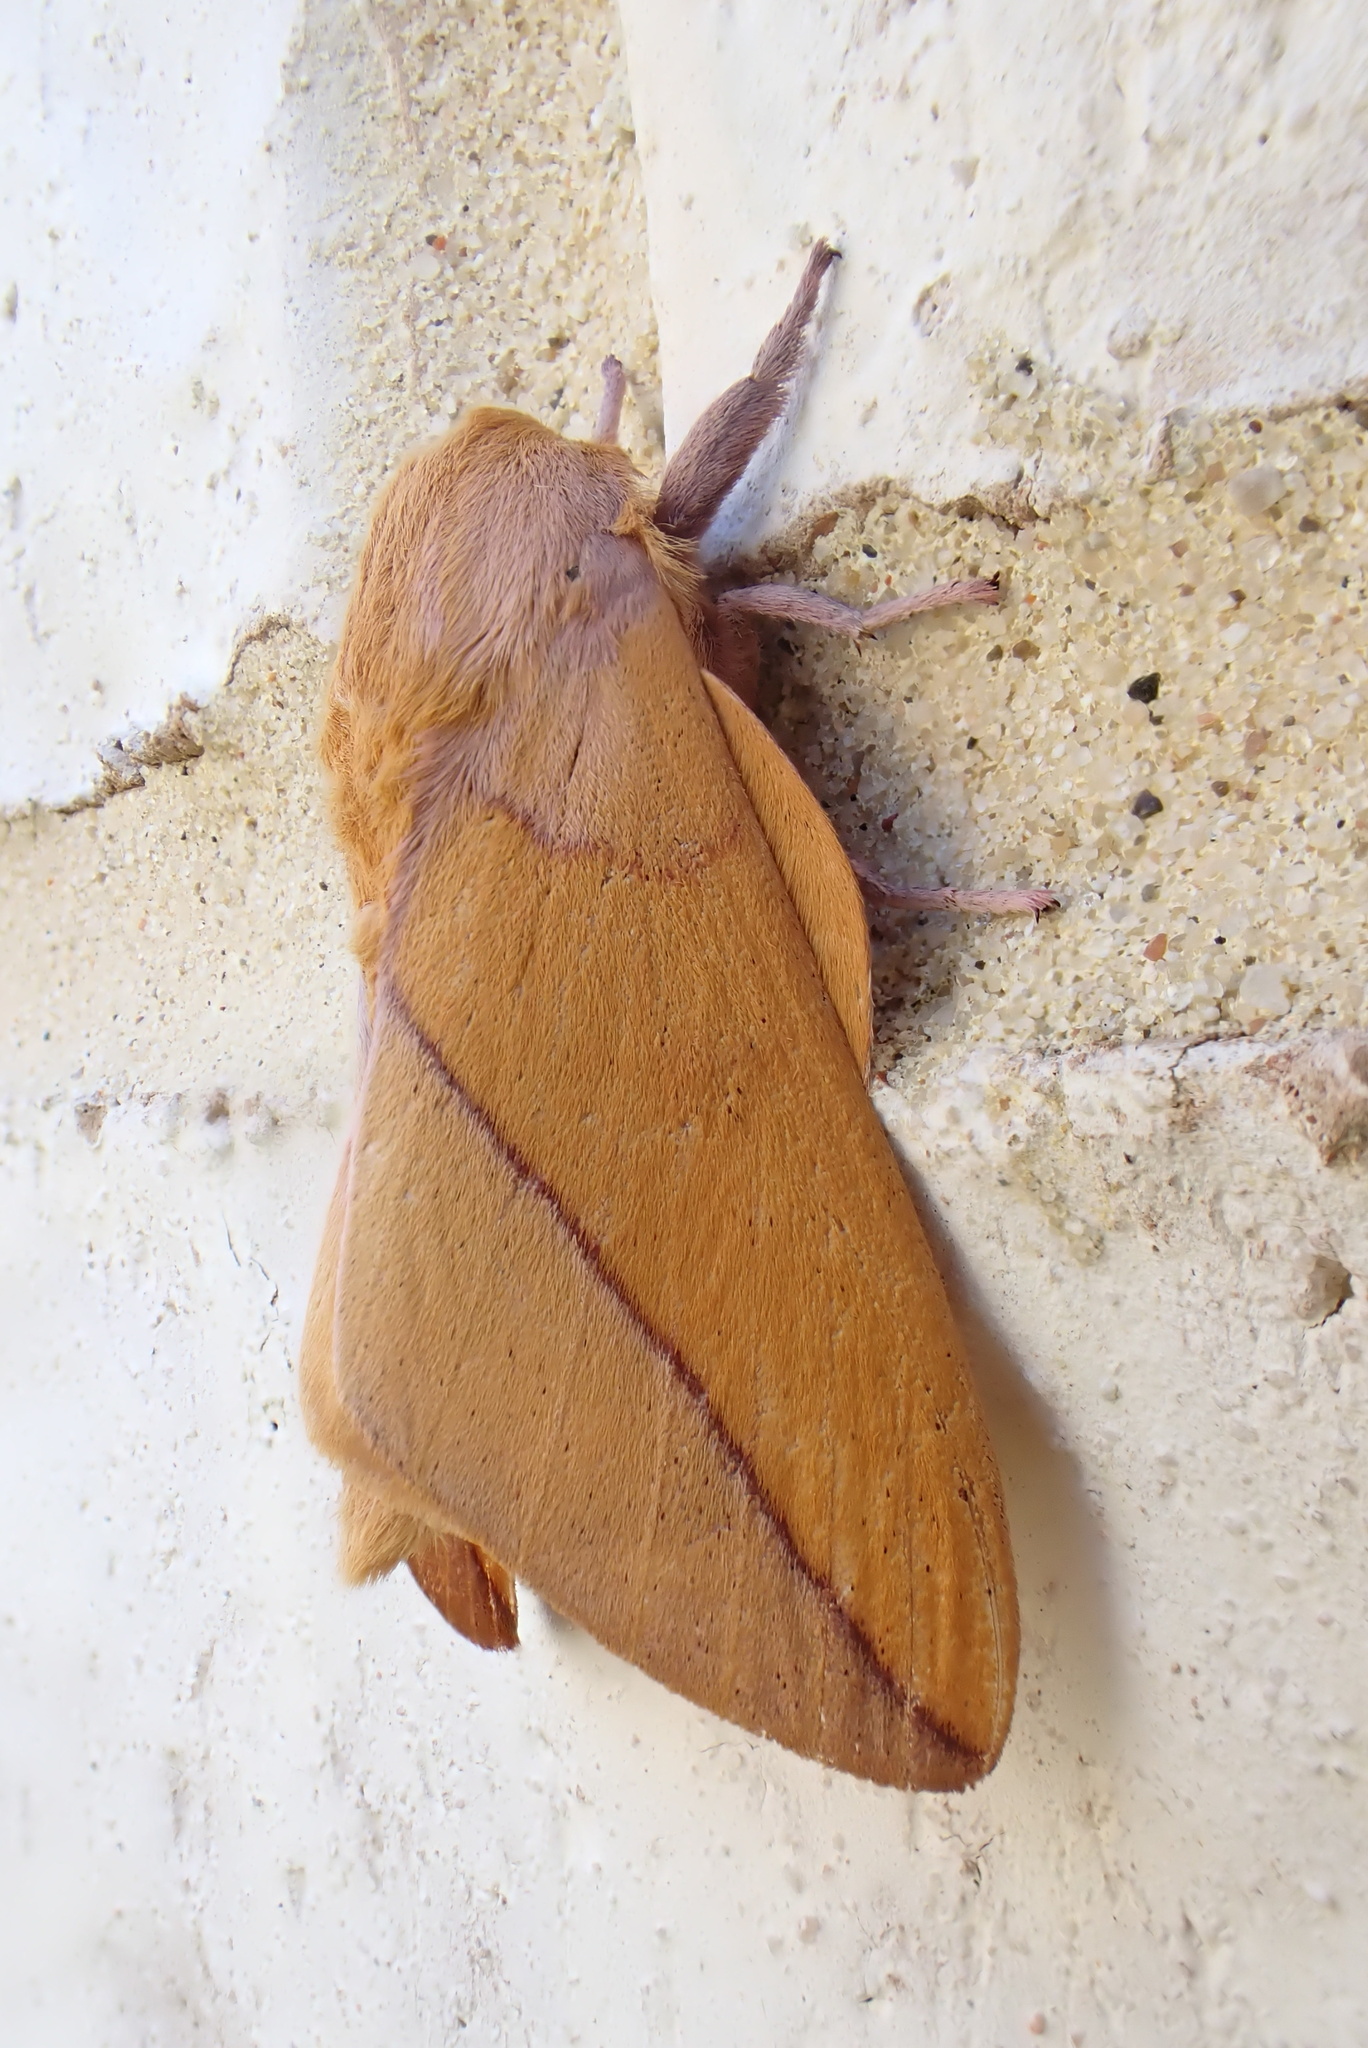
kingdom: Animalia
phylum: Arthropoda
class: Insecta
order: Lepidoptera
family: Saturniidae
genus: Syssphinx
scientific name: Syssphinx bisecta
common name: Bisected honey locust moth
